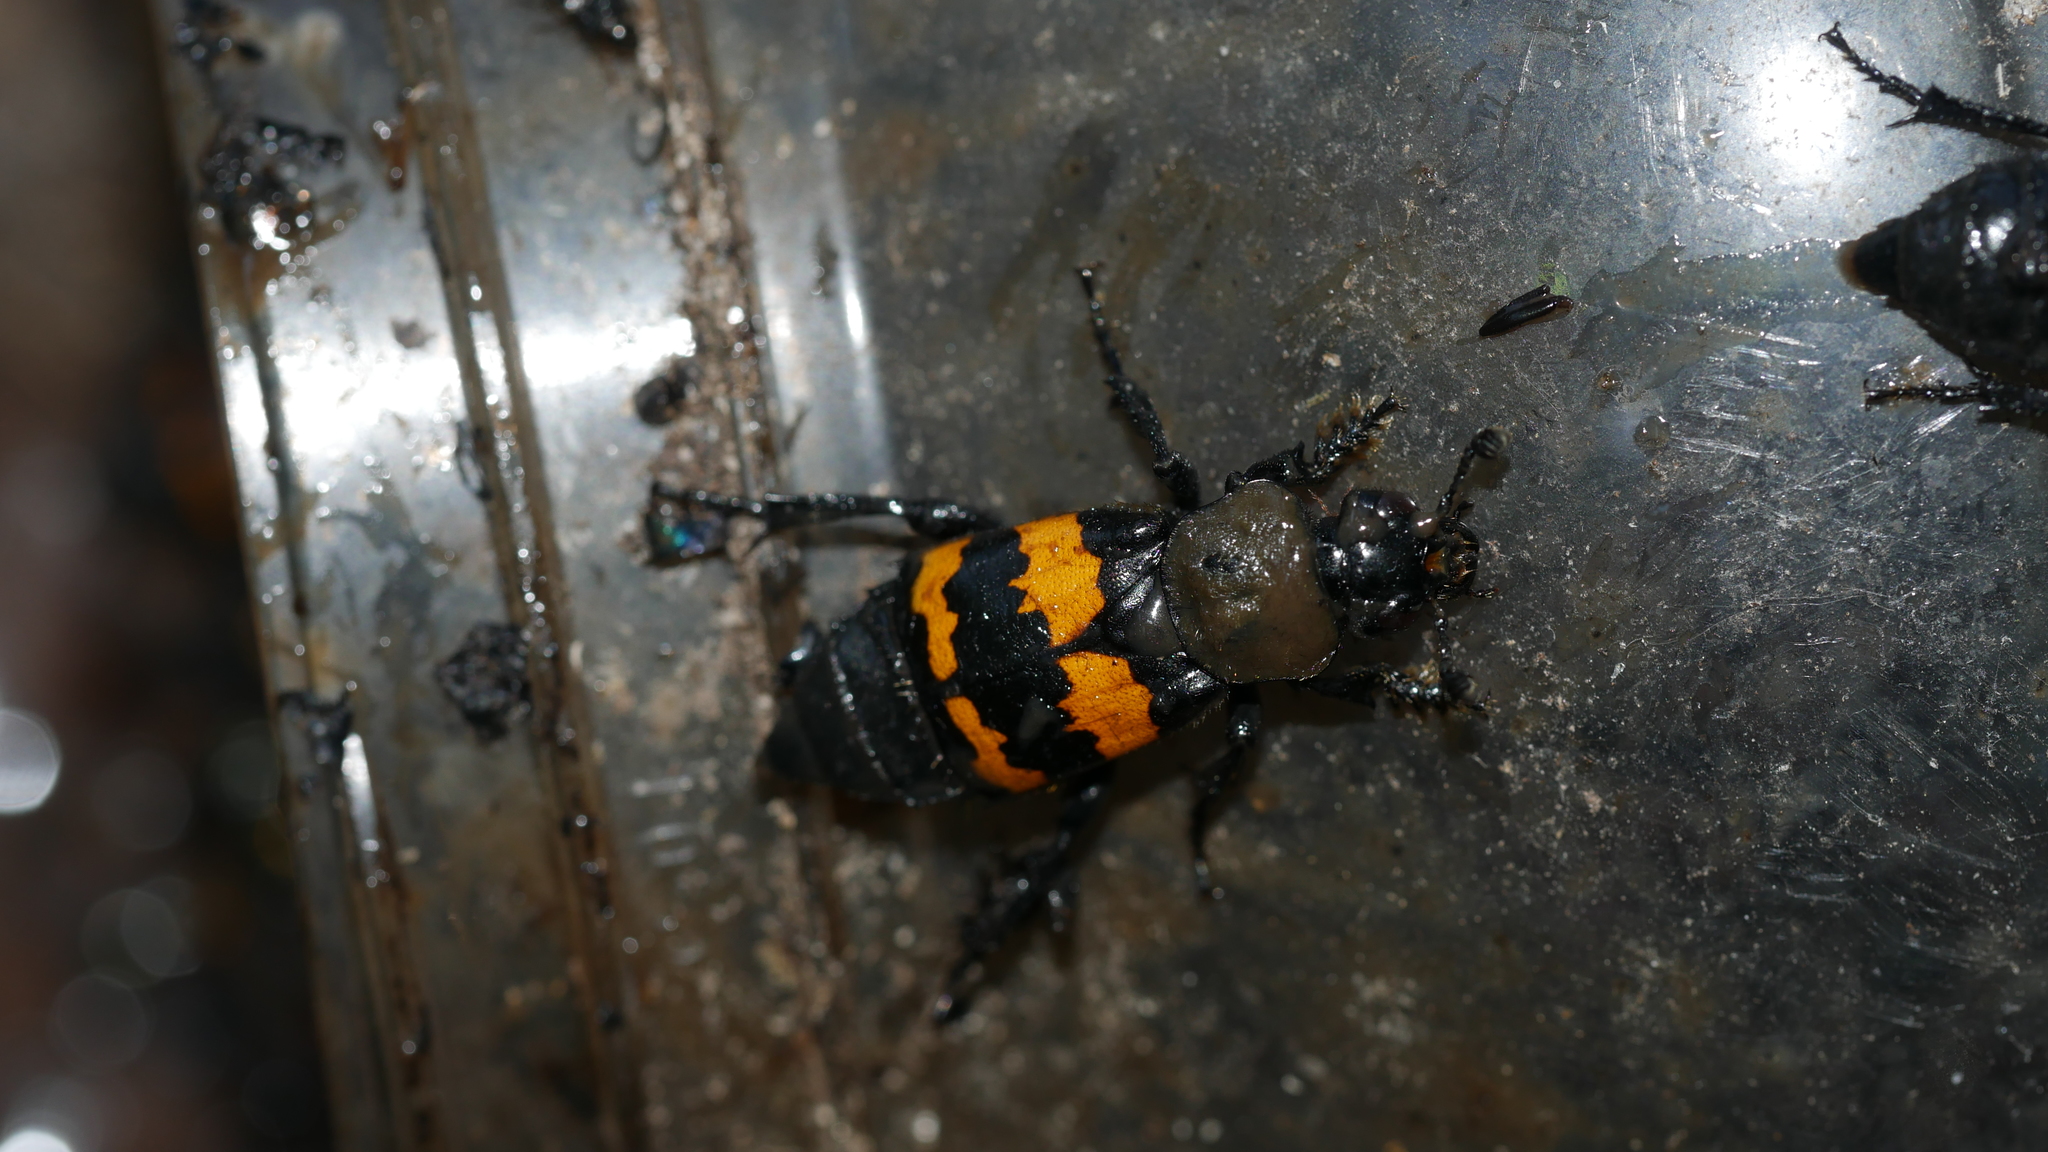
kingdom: Animalia
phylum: Arthropoda
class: Insecta
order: Coleoptera
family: Staphylinidae
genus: Nicrophorus
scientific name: Nicrophorus tomentosus
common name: Tomentose burying beetle
